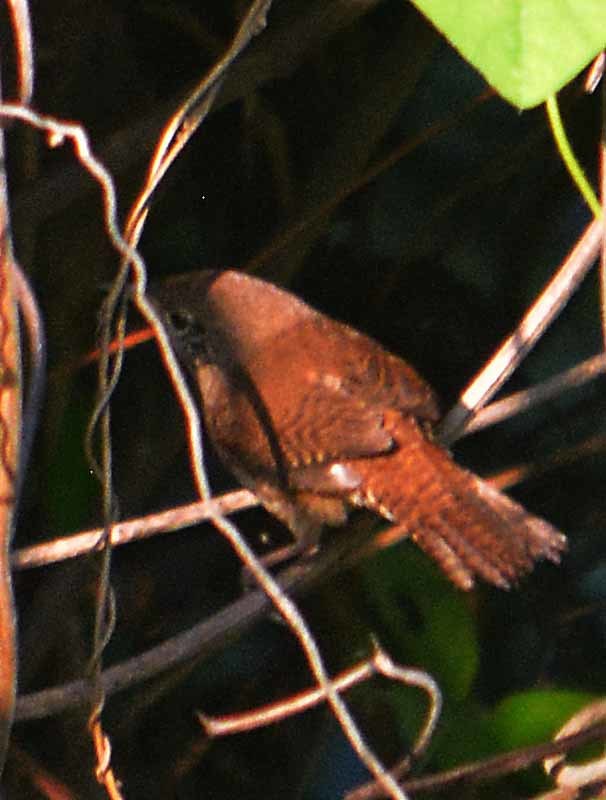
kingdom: Animalia
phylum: Chordata
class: Aves
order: Passeriformes
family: Troglodytidae
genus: Troglodytes
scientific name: Troglodytes aedon
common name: House wren
